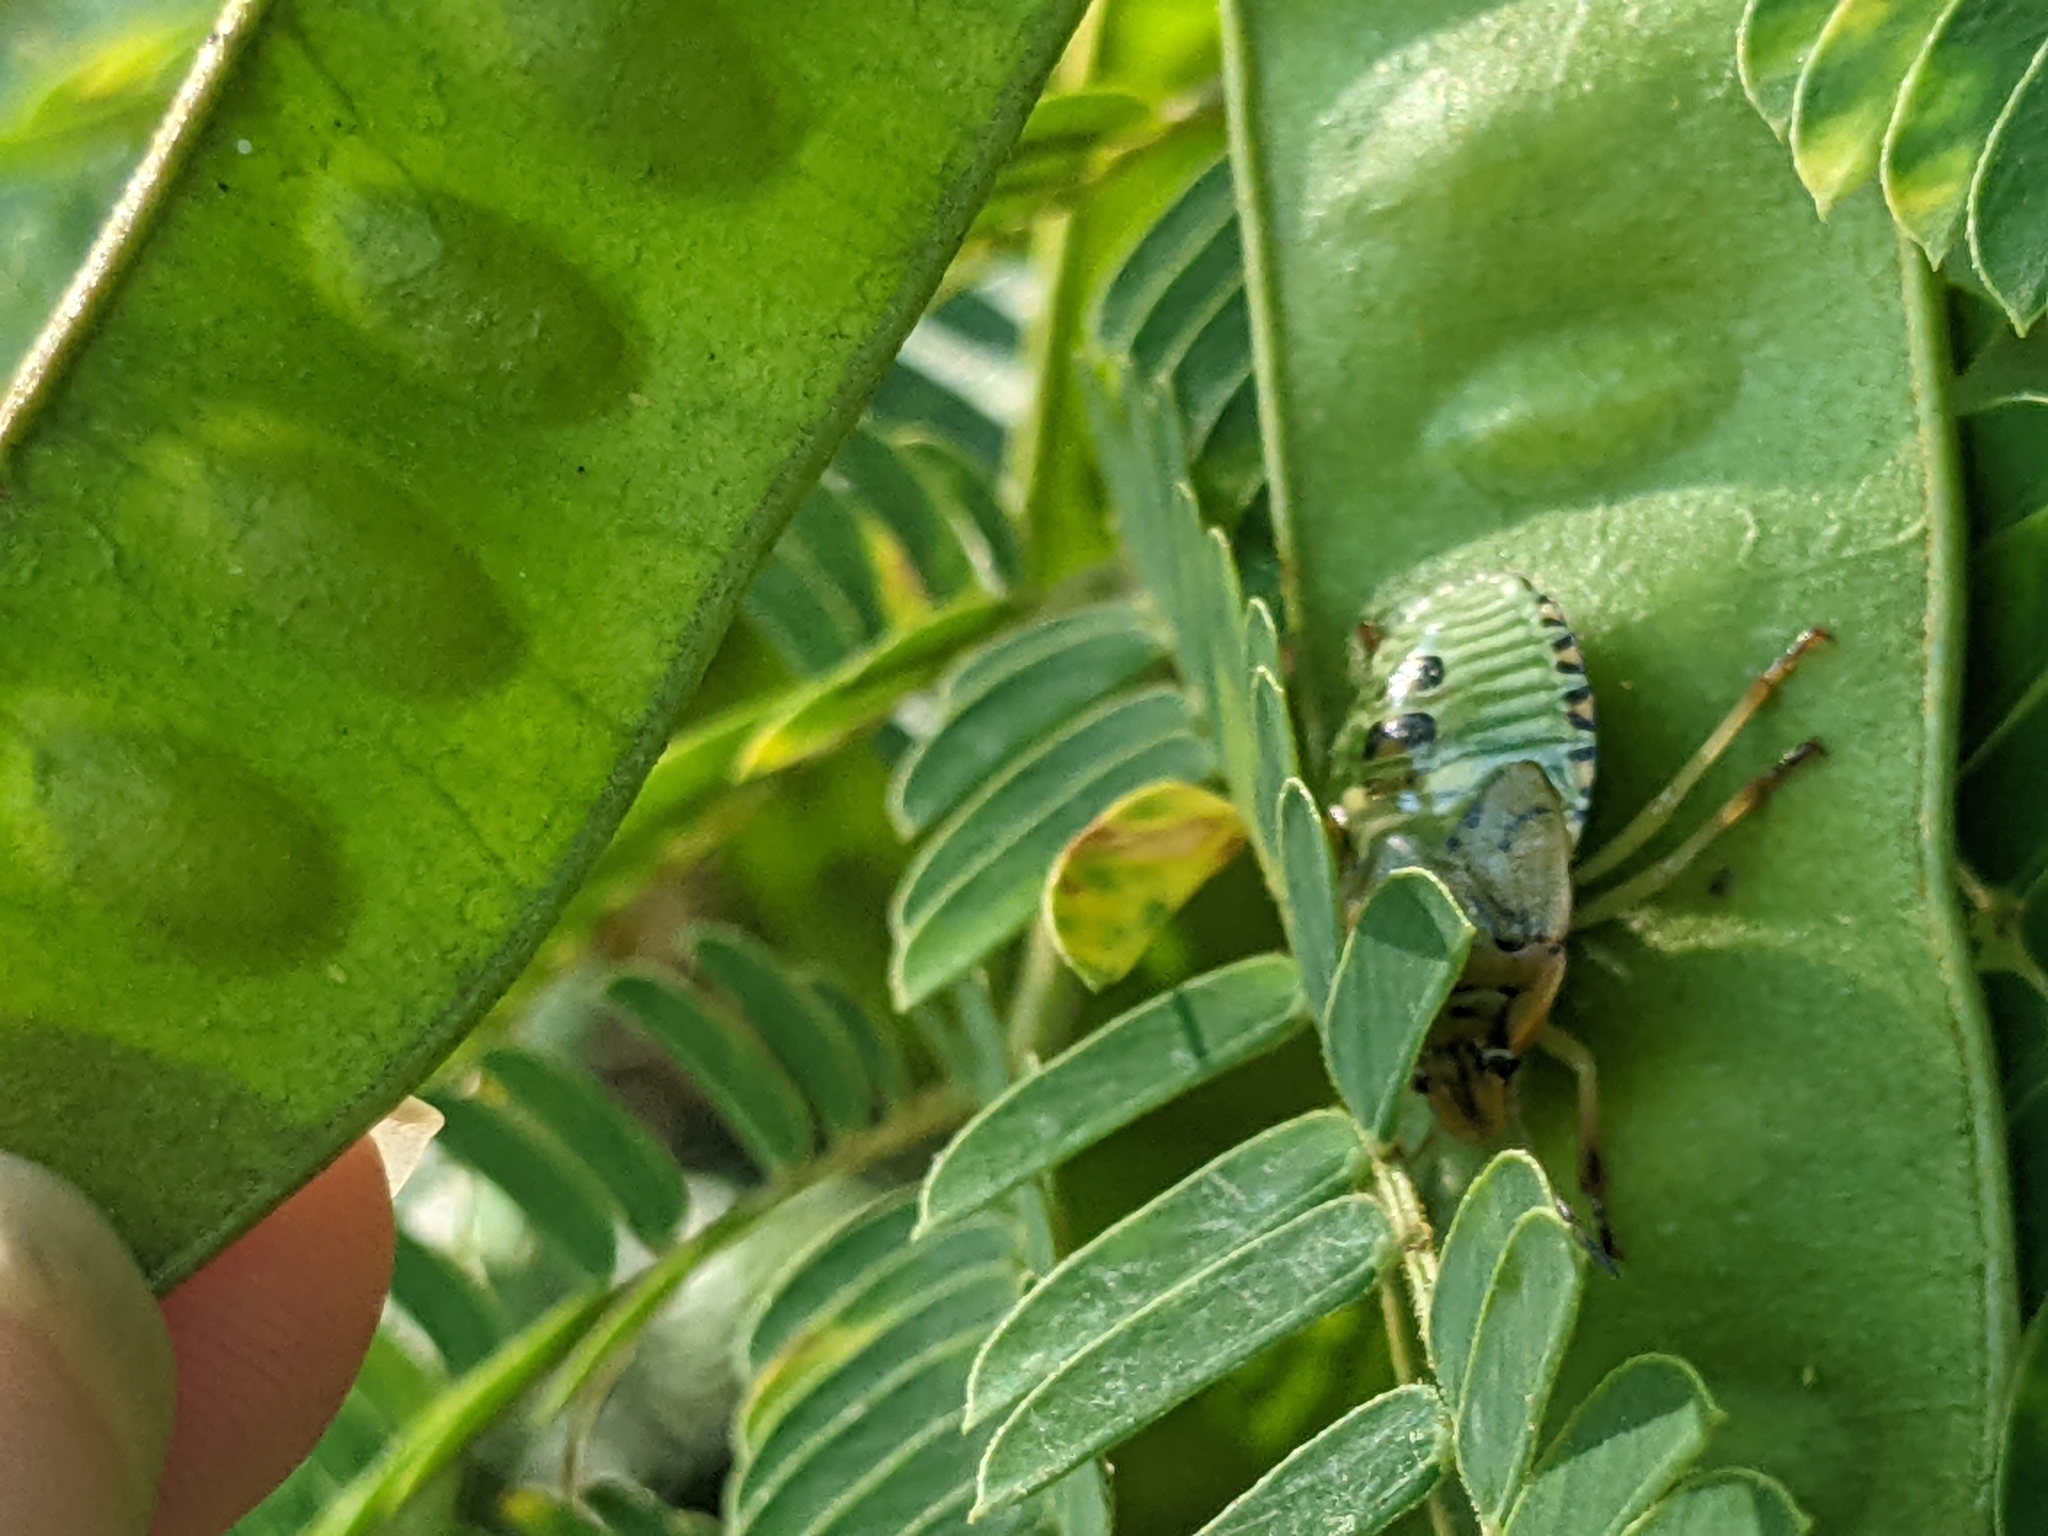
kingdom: Animalia
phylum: Arthropoda
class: Insecta
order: Hemiptera
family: Pentatomidae
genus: Chinavia
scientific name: Chinavia hilaris
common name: Green stink bug
